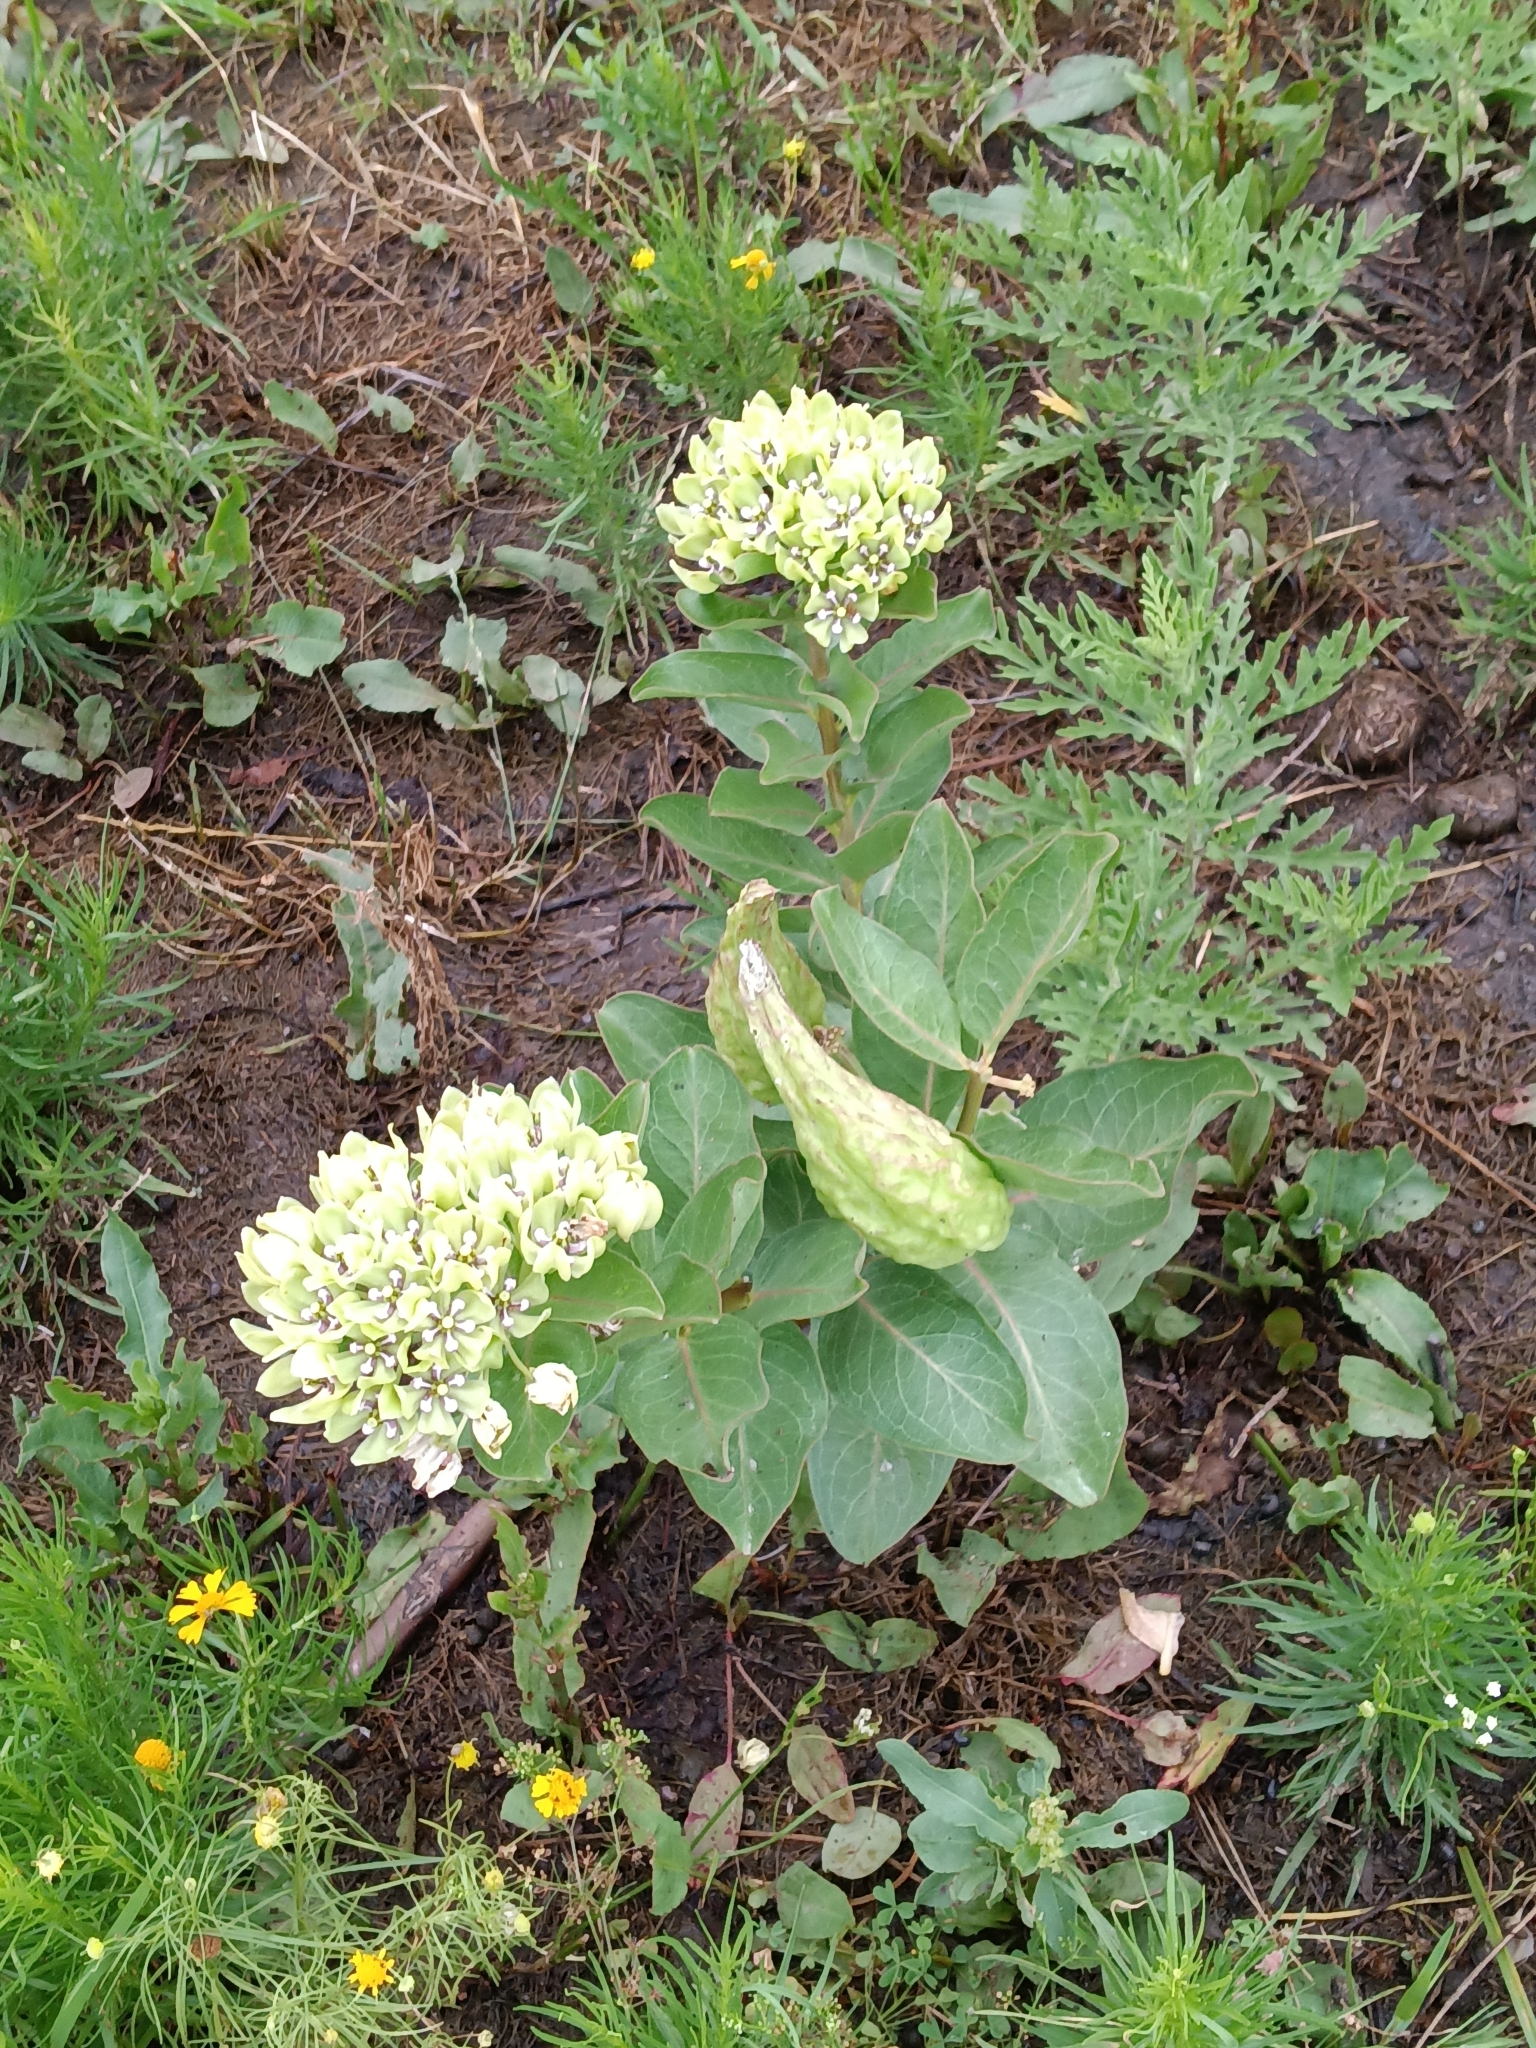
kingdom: Plantae
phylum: Tracheophyta
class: Magnoliopsida
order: Gentianales
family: Apocynaceae
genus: Asclepias
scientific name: Asclepias viridis
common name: Antelope-horns
